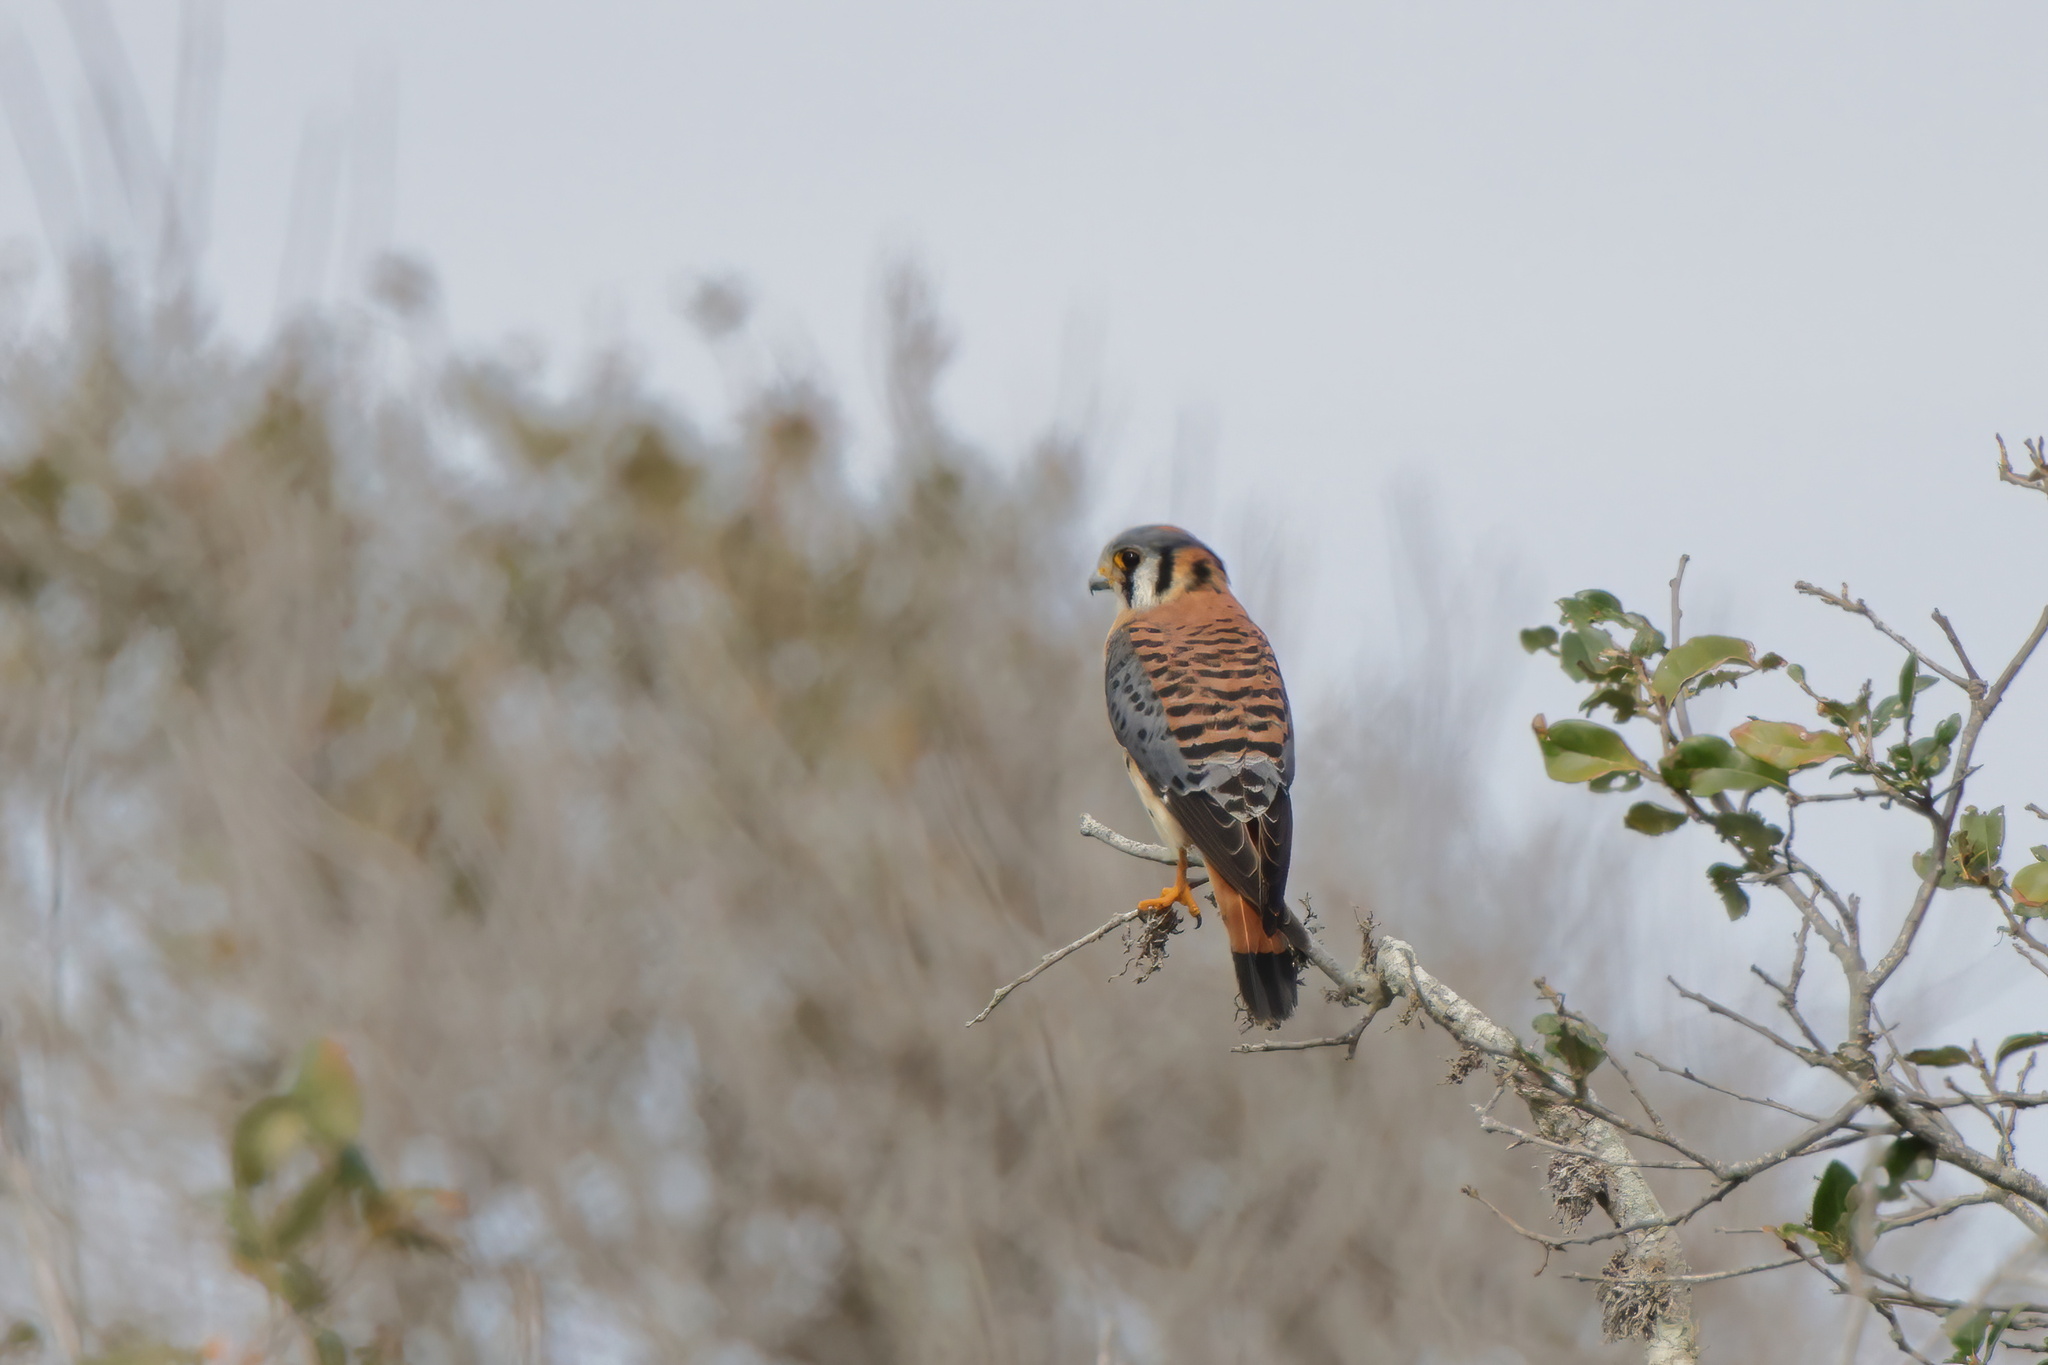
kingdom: Animalia
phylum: Chordata
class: Aves
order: Falconiformes
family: Falconidae
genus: Falco
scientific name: Falco sparverius
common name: American kestrel
